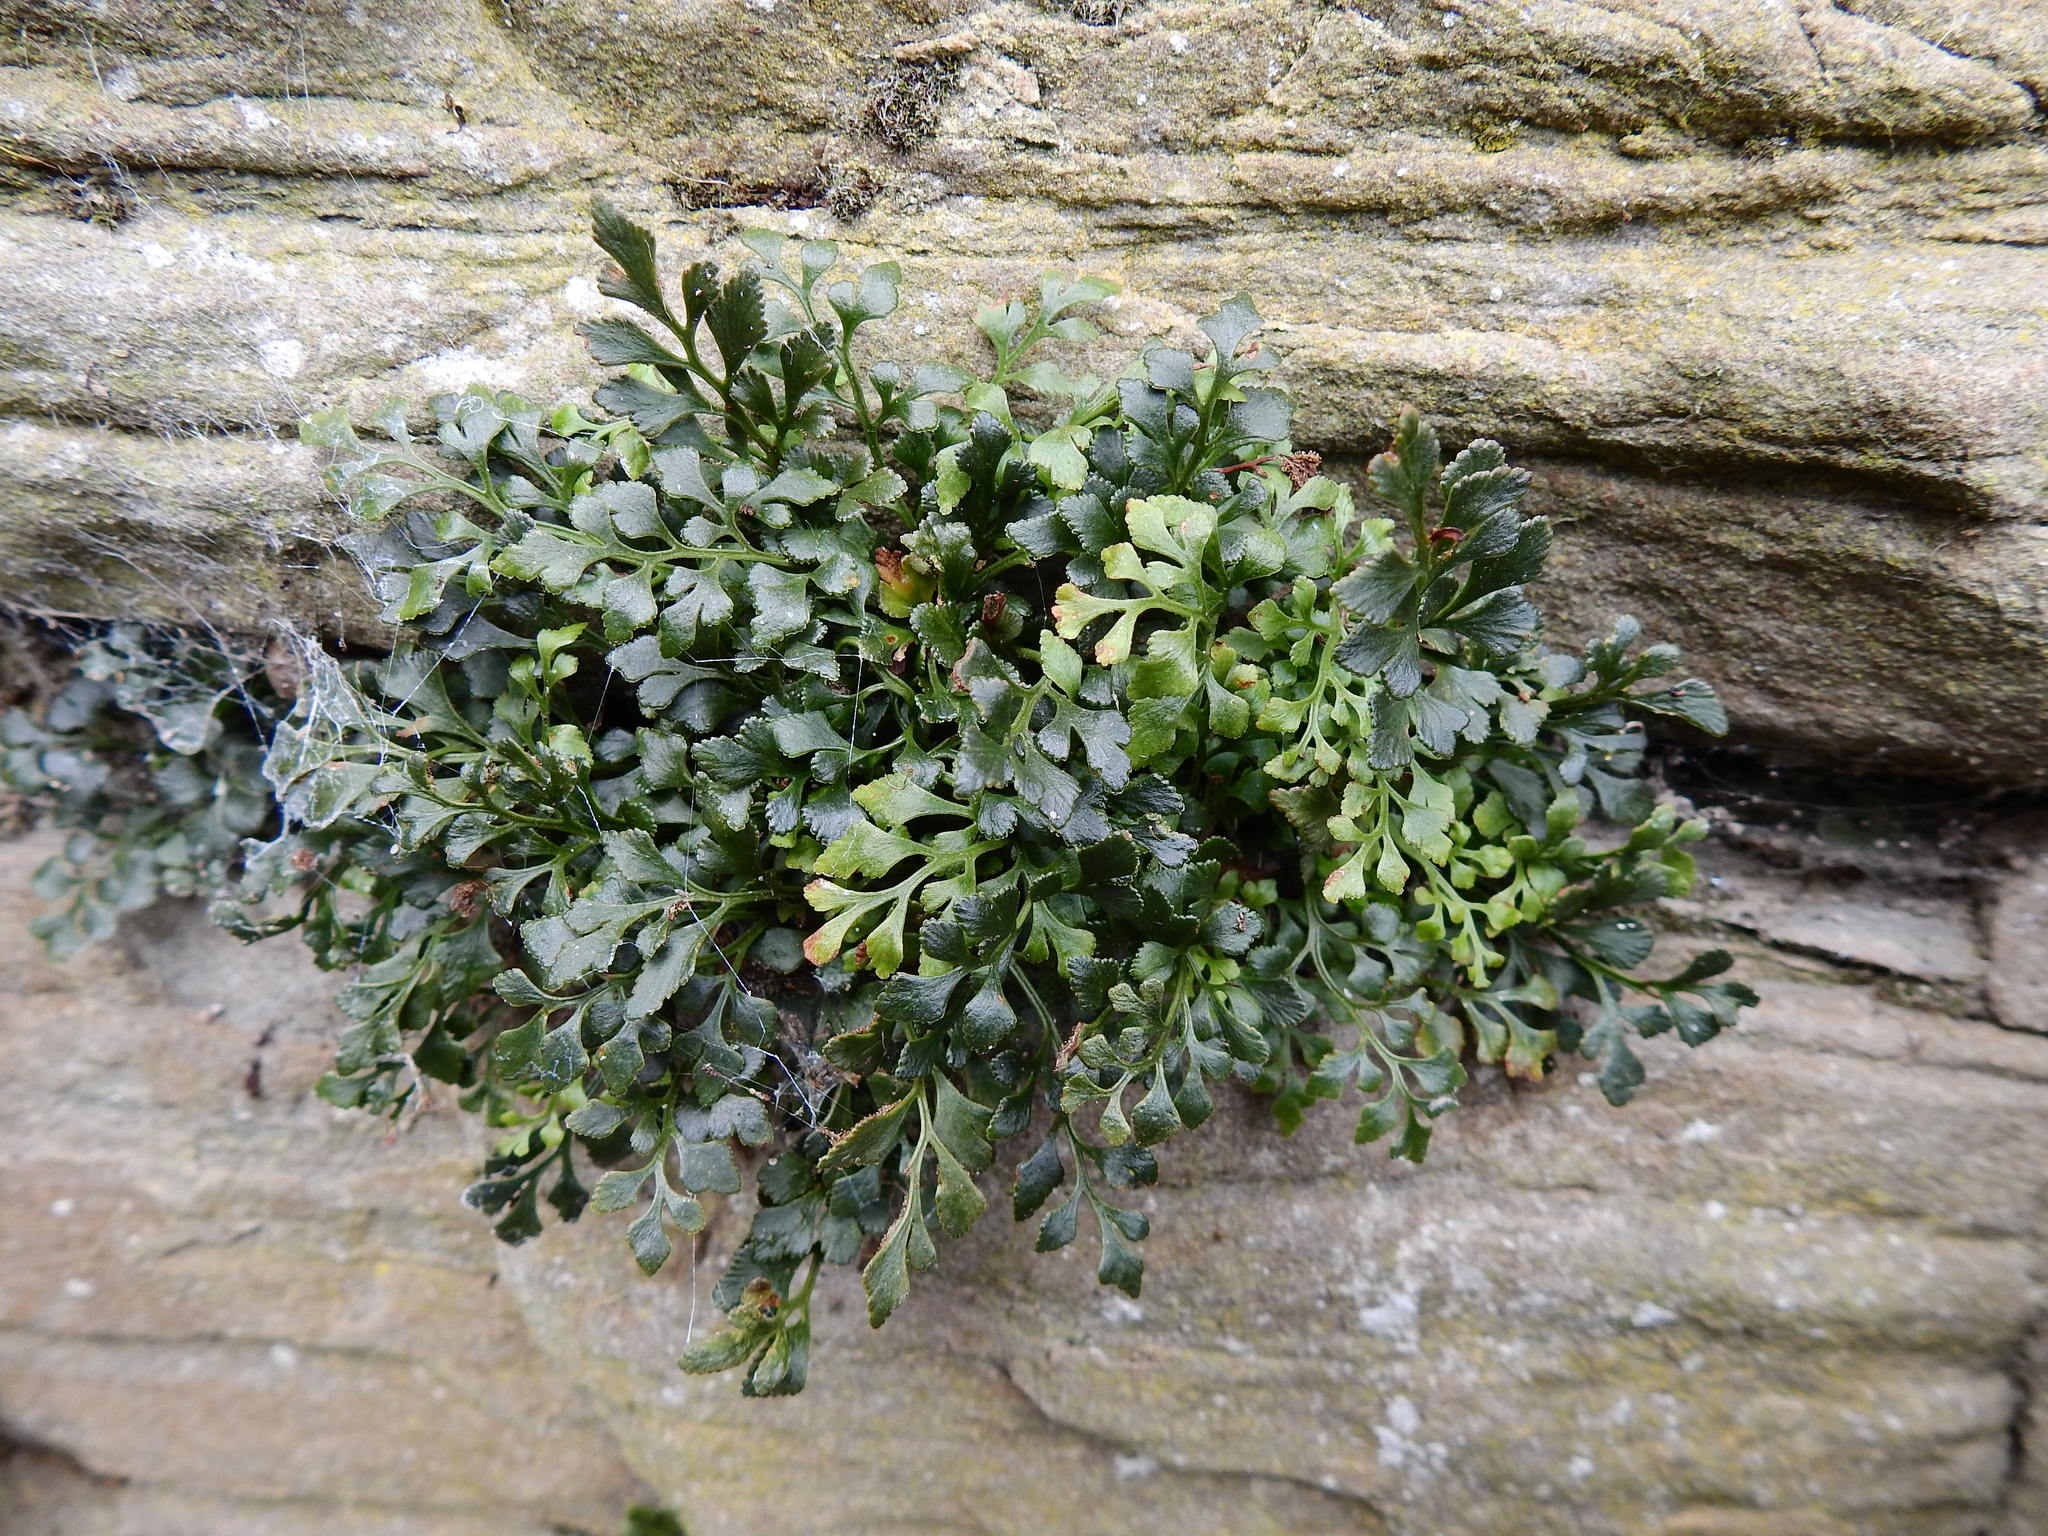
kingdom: Plantae
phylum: Tracheophyta
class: Polypodiopsida
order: Polypodiales
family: Aspleniaceae
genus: Asplenium
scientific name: Asplenium ruta-muraria
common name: Wall-rue
